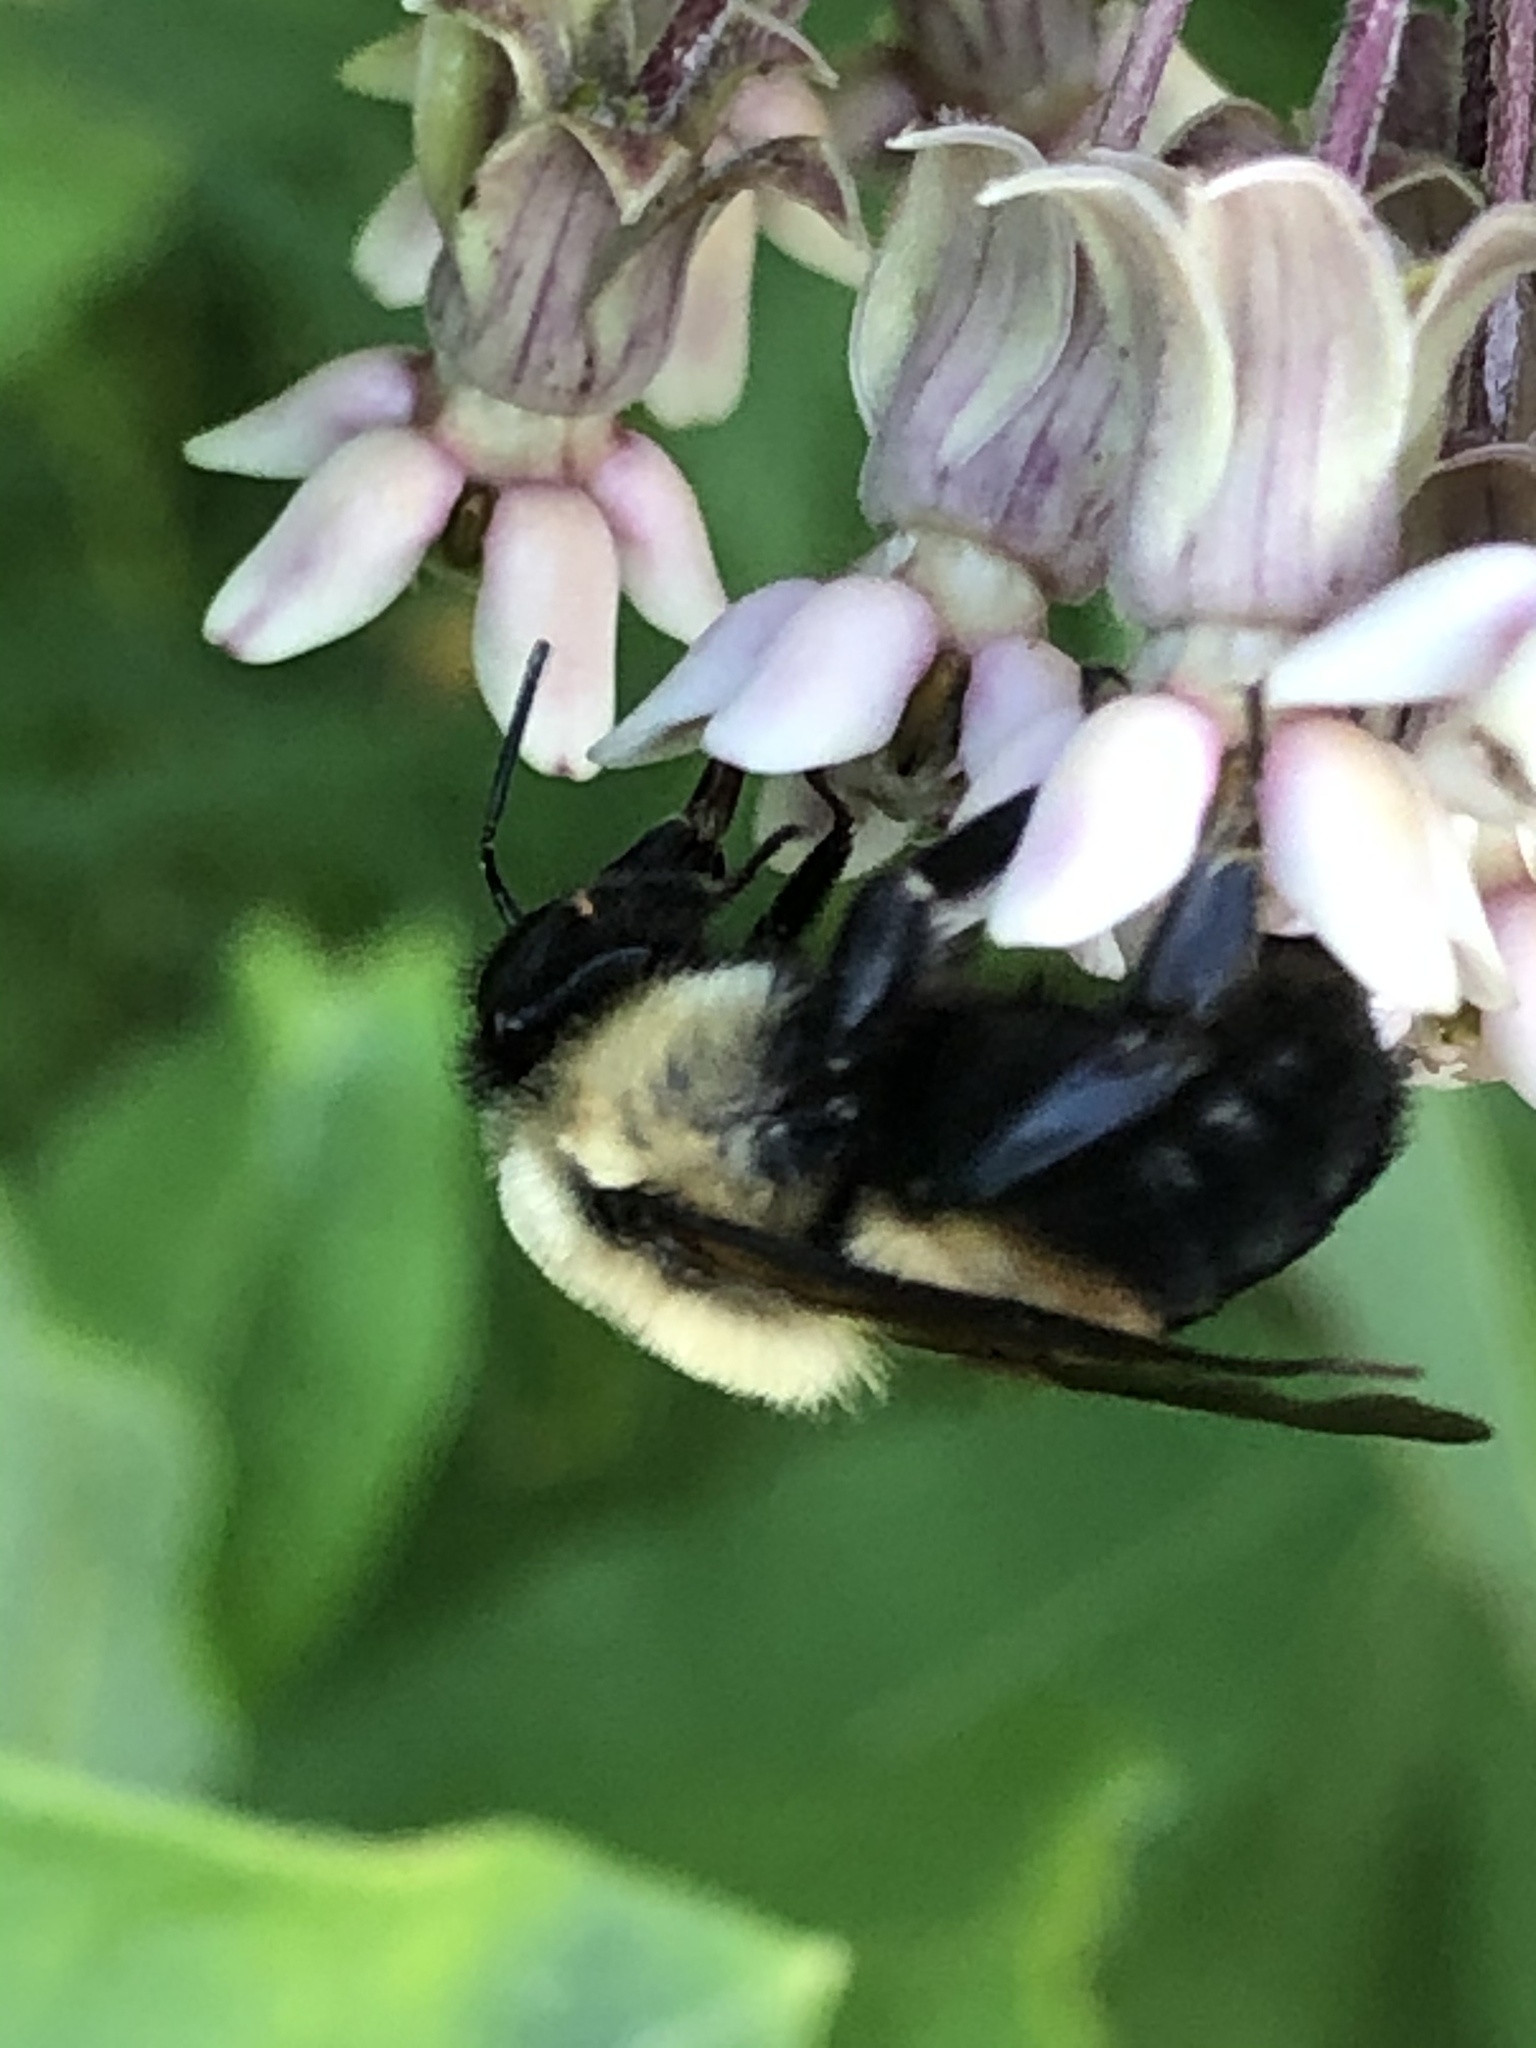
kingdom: Animalia
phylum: Arthropoda
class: Insecta
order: Hymenoptera
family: Apidae
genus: Bombus
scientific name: Bombus griseocollis
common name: Brown-belted bumble bee
